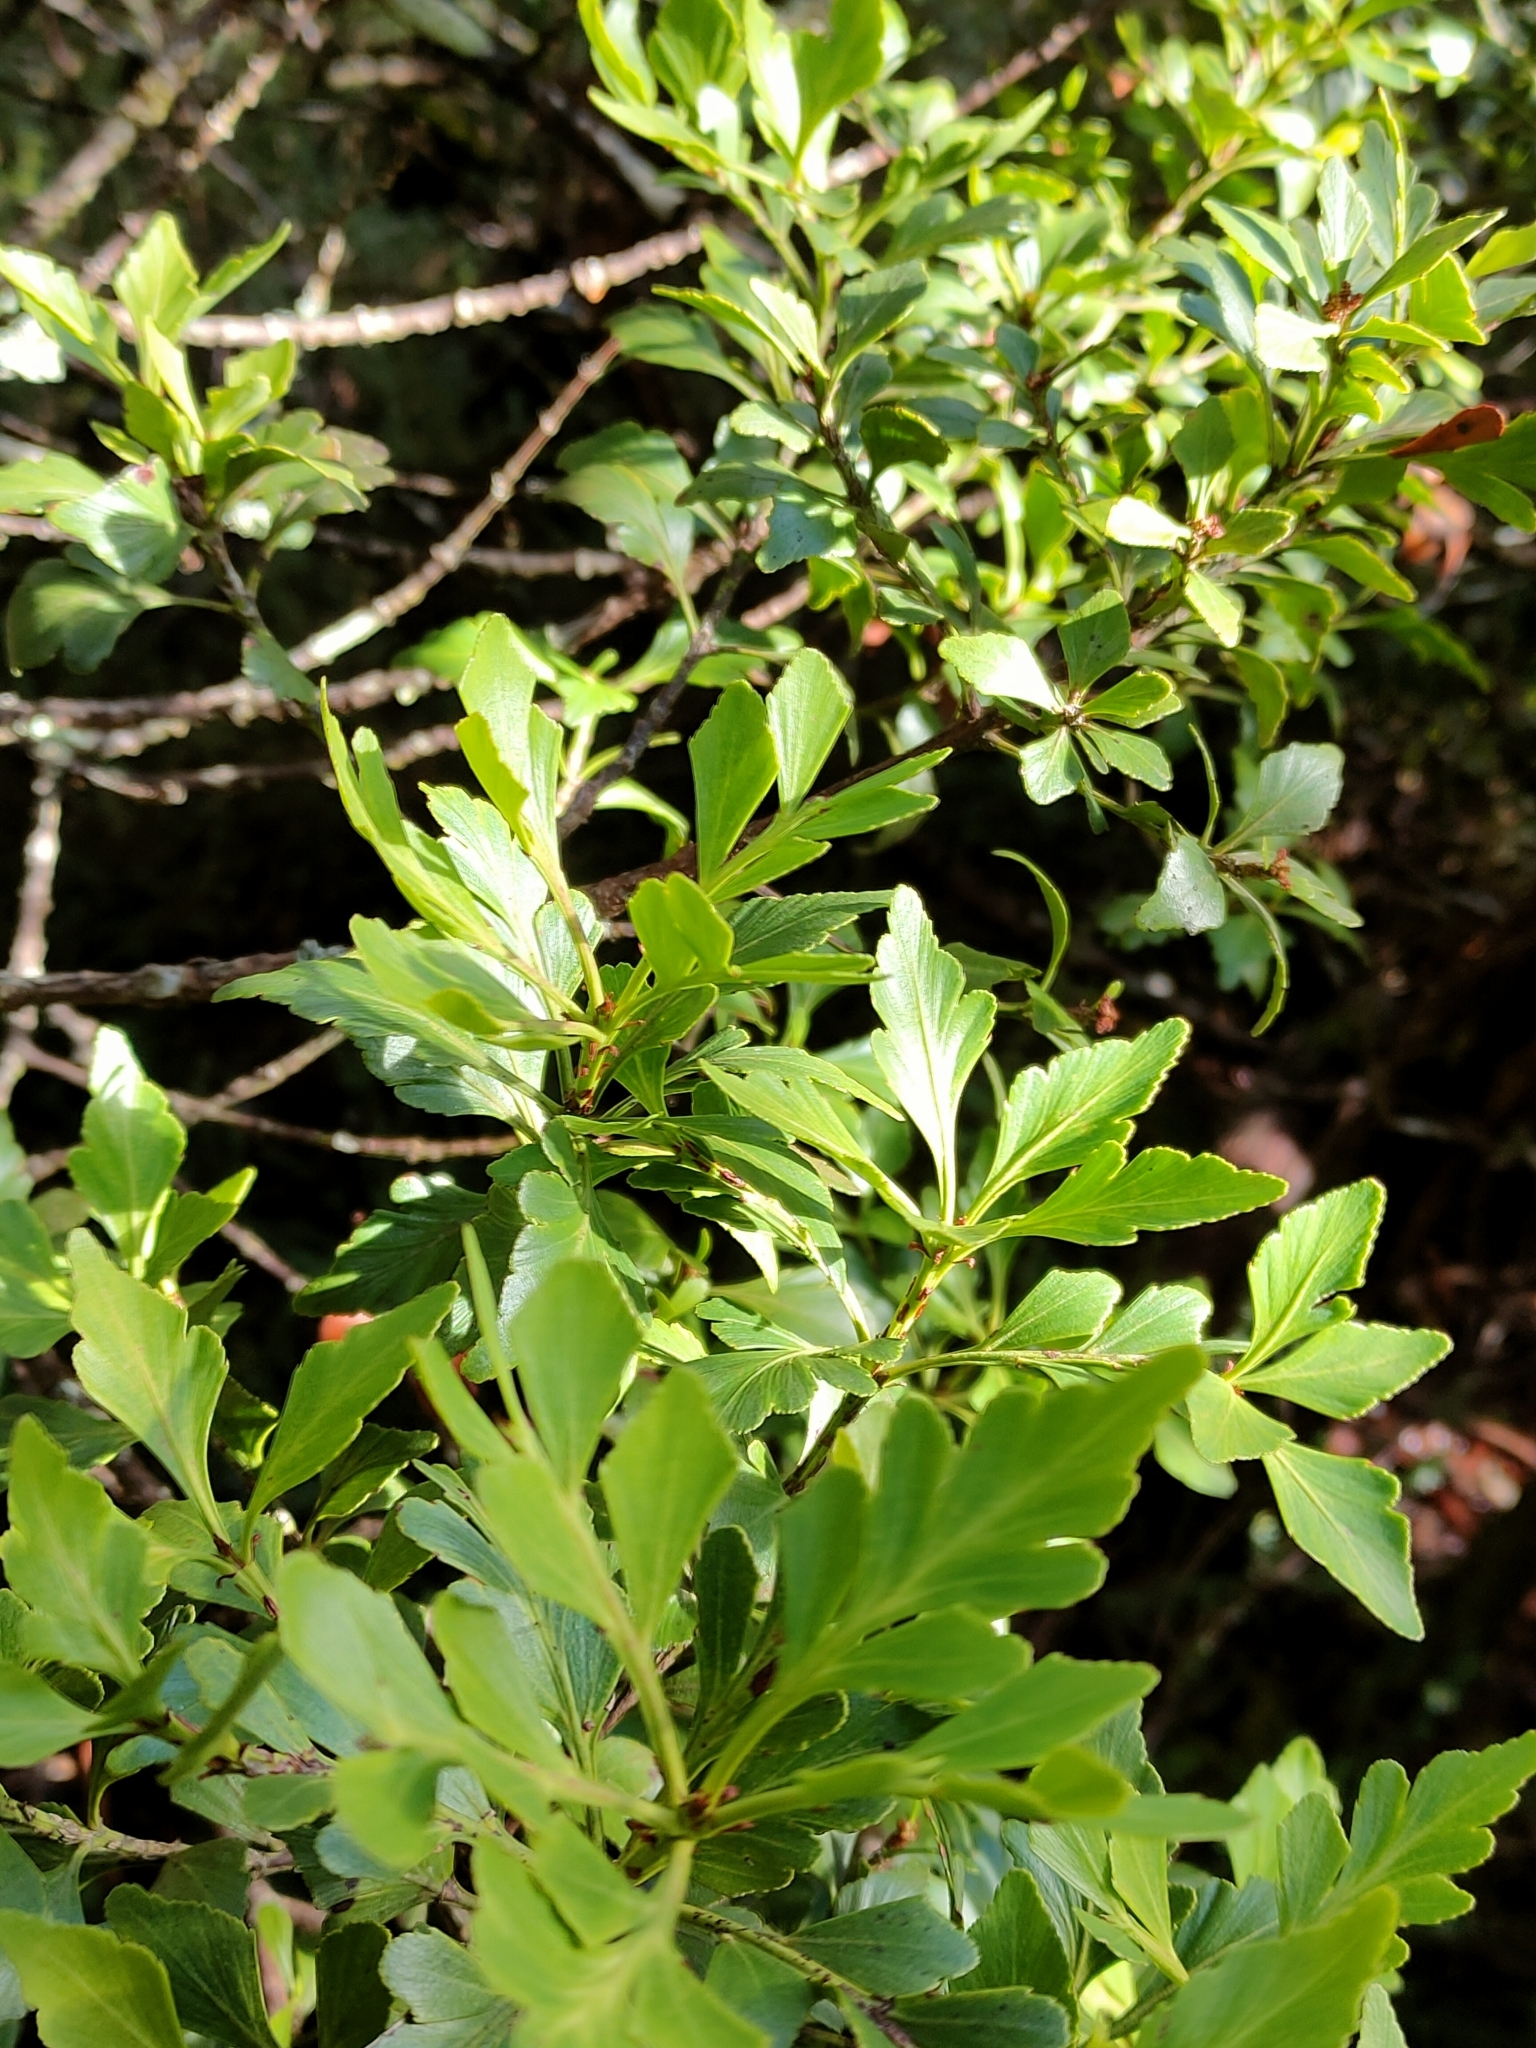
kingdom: Plantae
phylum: Tracheophyta
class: Pinopsida
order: Pinales
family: Phyllocladaceae
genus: Phyllocladus
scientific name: Phyllocladus aspleniifolius
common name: Celery-top pine
